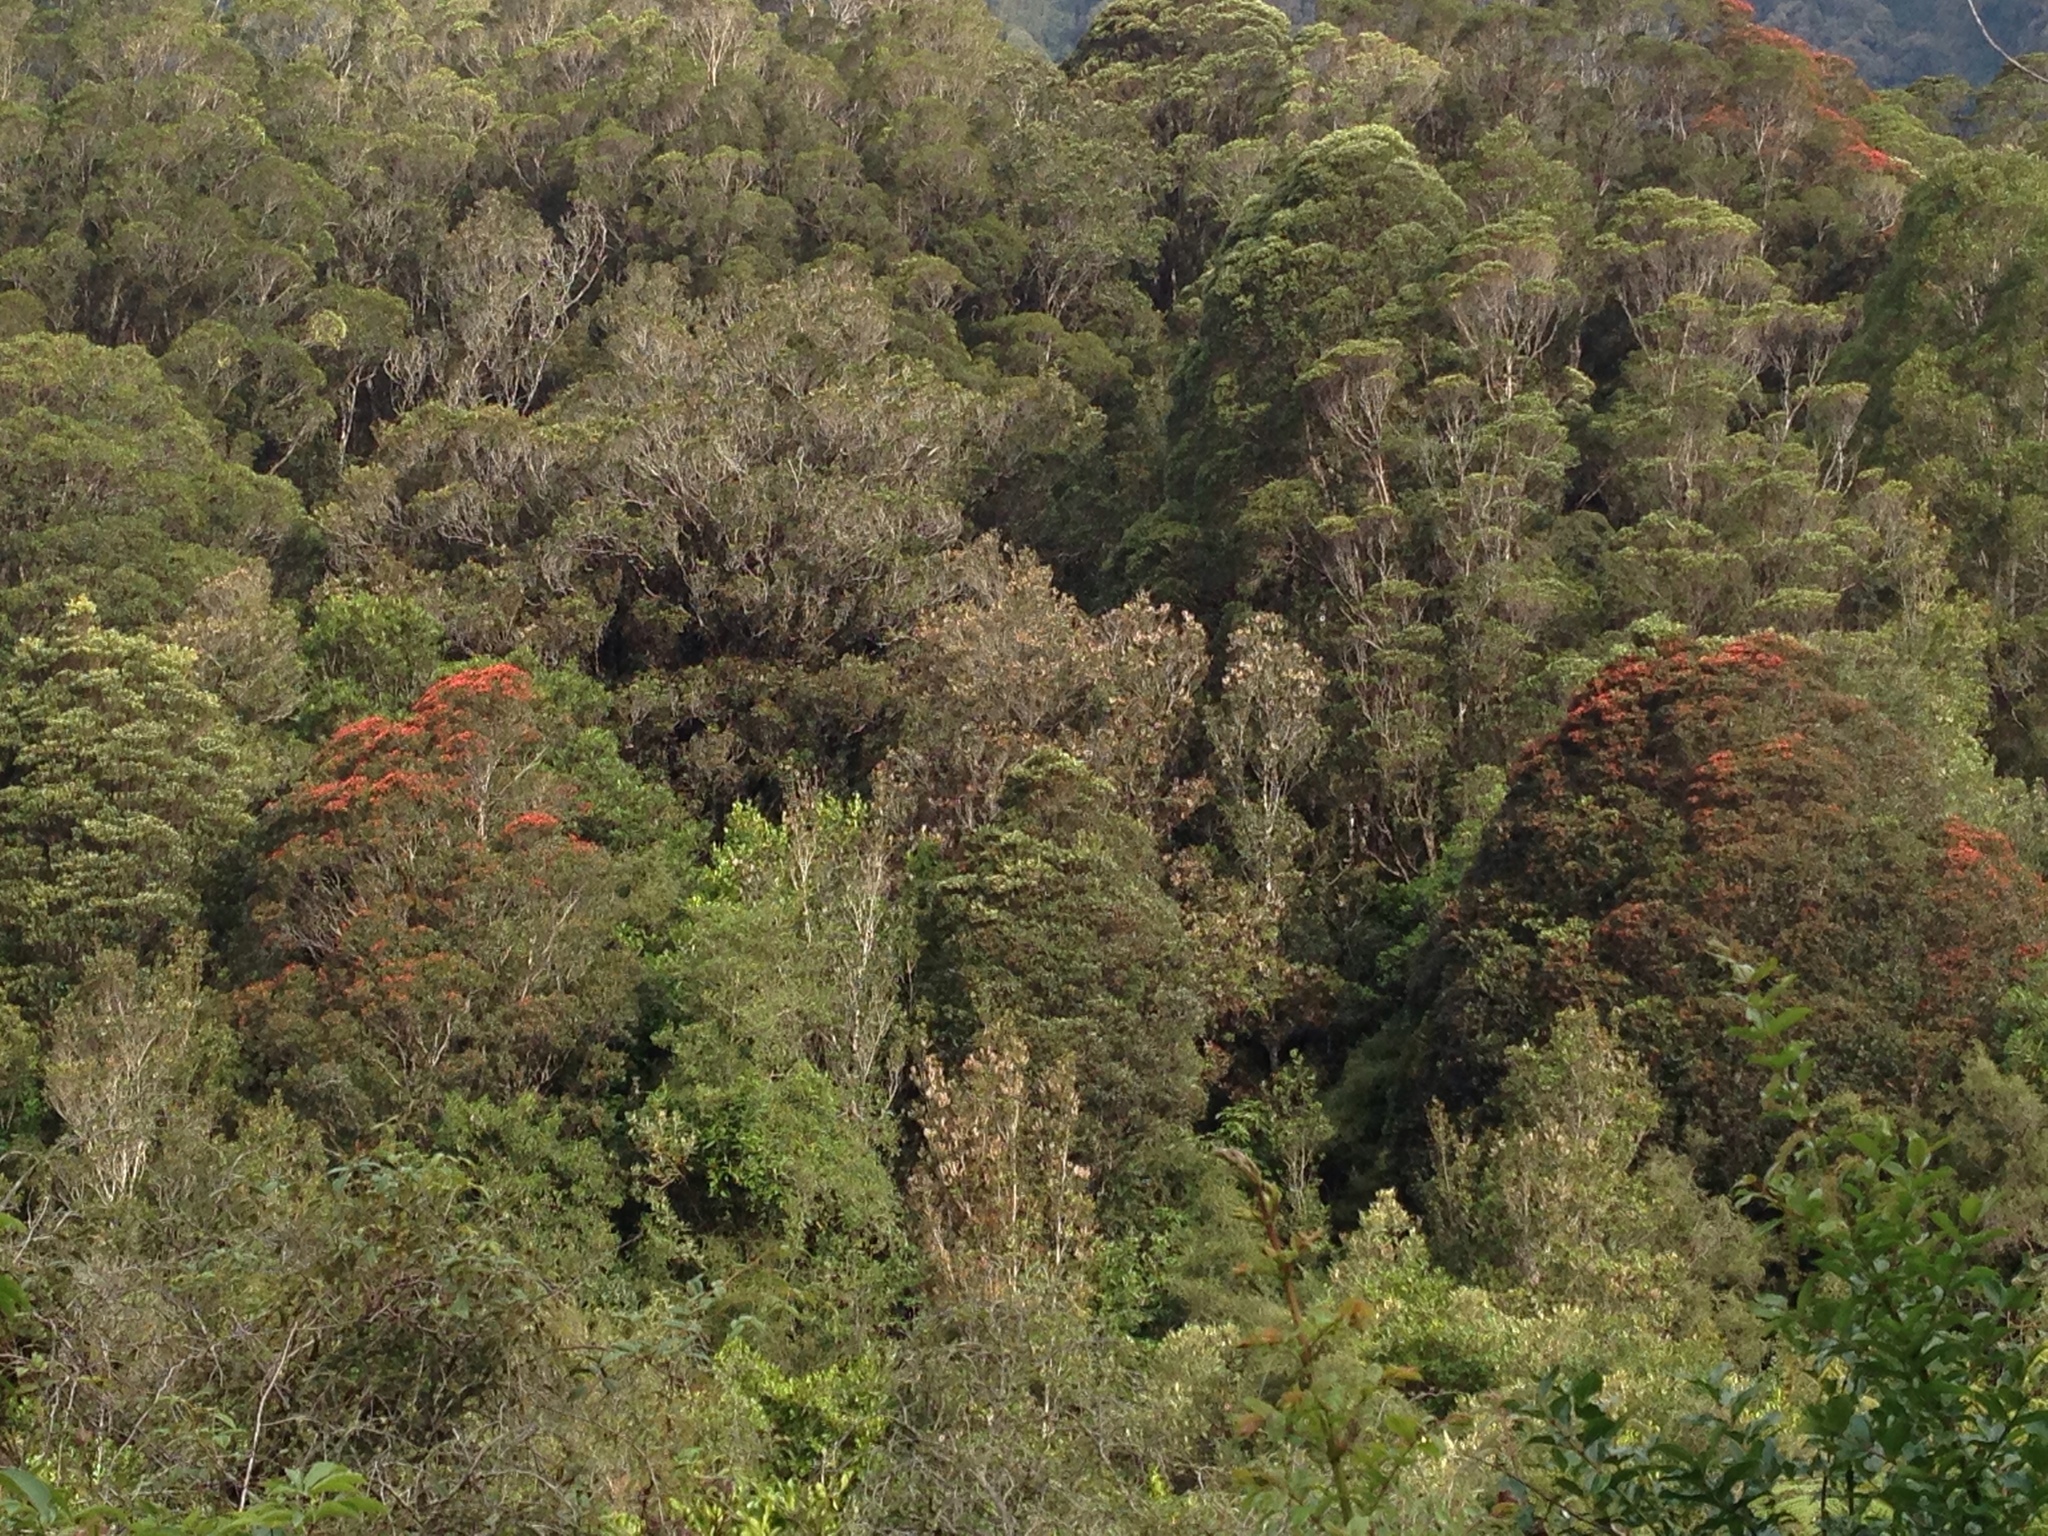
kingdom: Plantae
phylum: Tracheophyta
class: Magnoliopsida
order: Myrtales
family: Myrtaceae
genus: Metrosideros
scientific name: Metrosideros umbellata
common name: Southern rata
